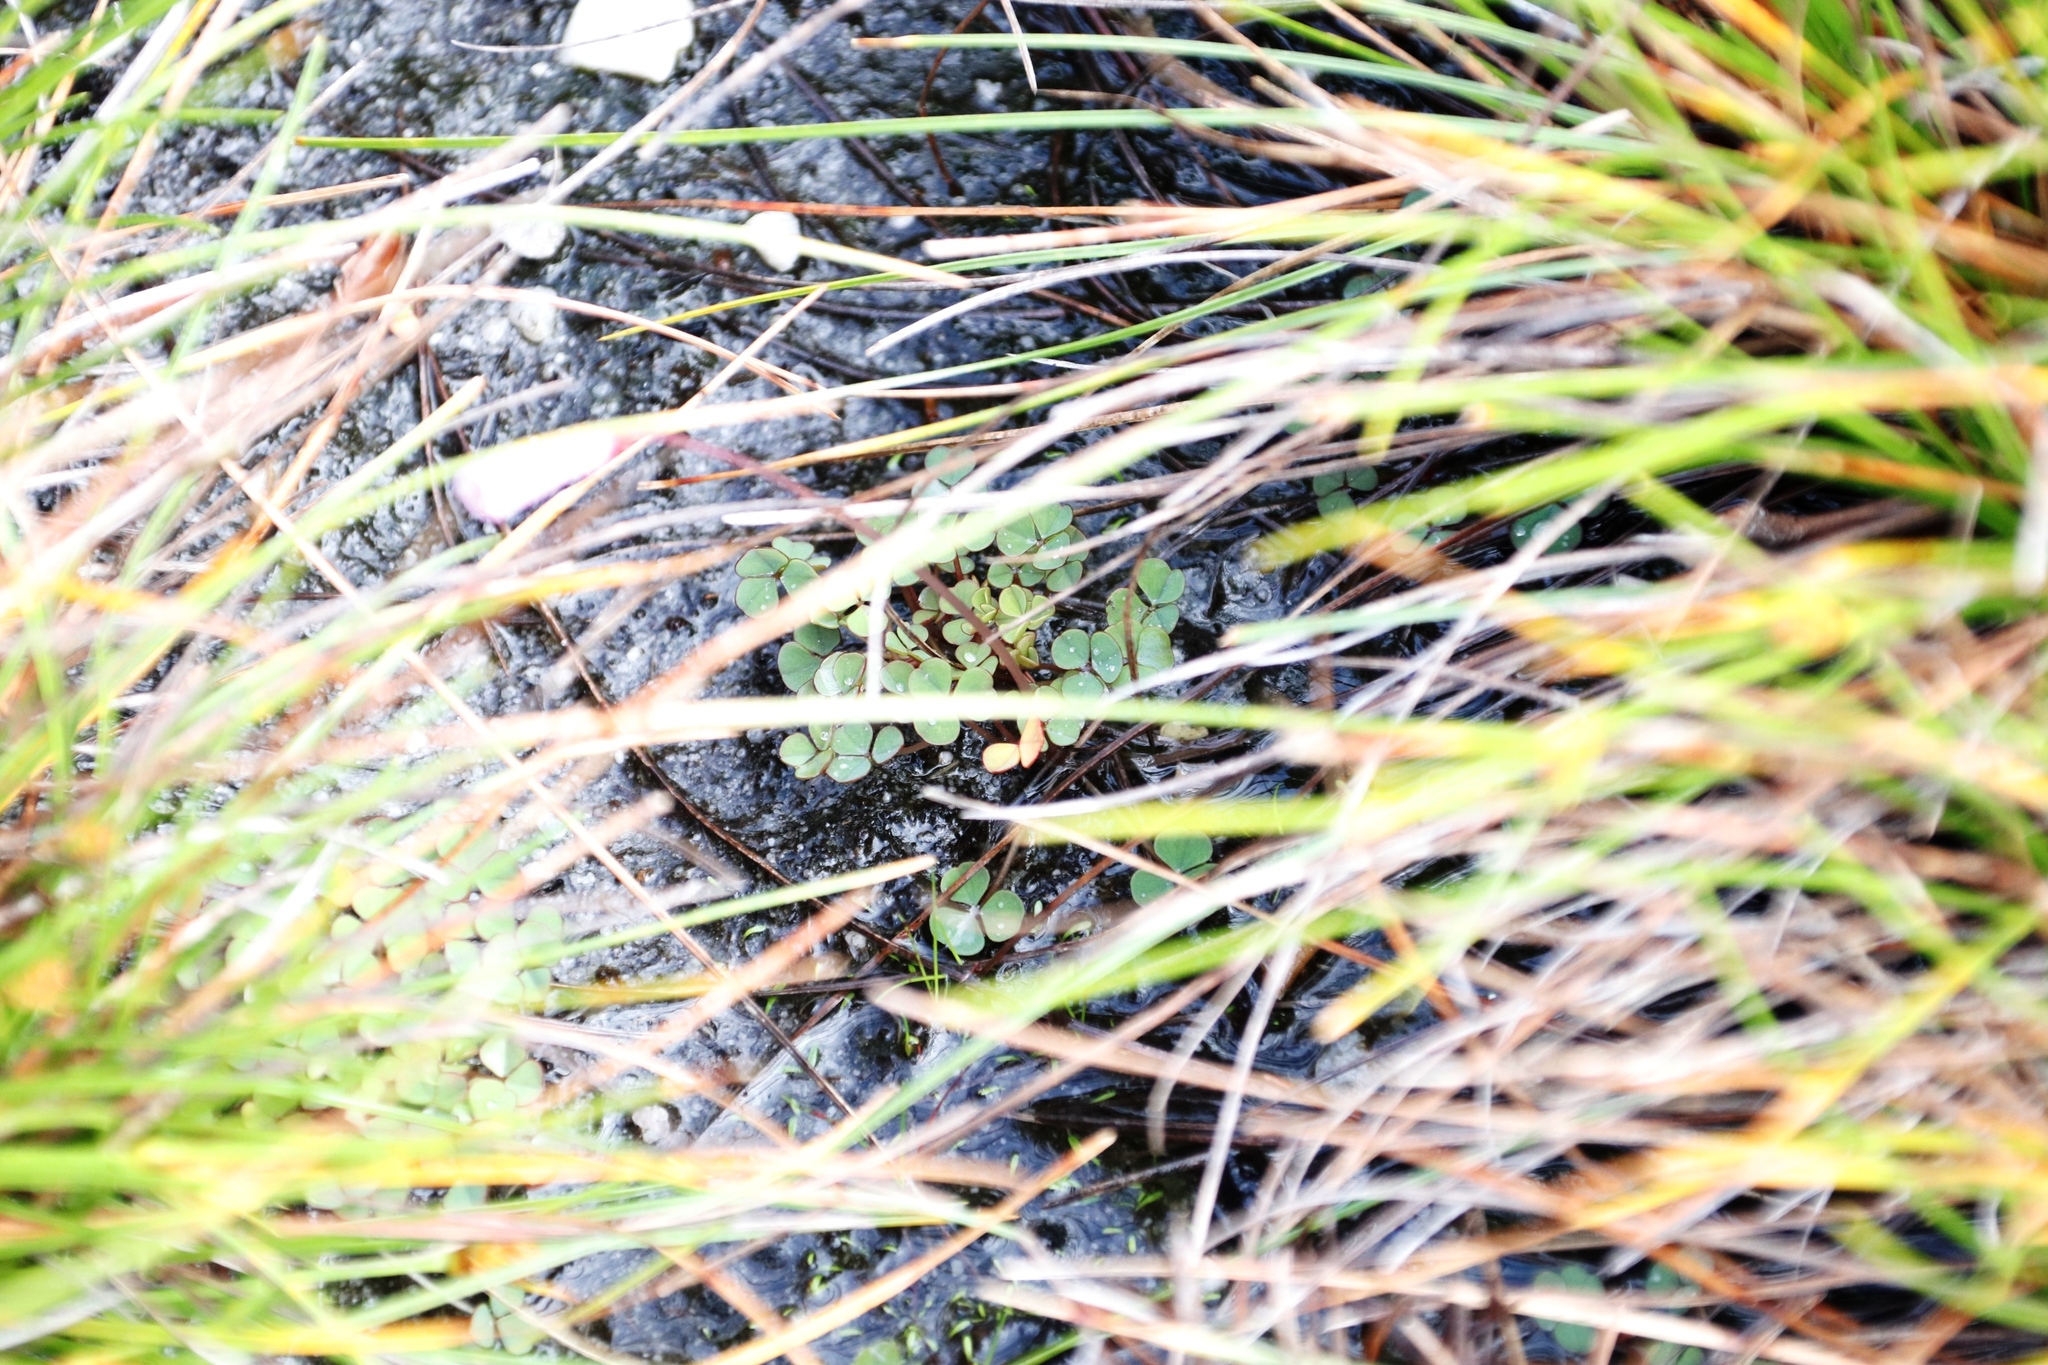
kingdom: Plantae
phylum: Tracheophyta
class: Magnoliopsida
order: Oxalidales
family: Oxalidaceae
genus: Oxalis
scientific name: Oxalis commutata
